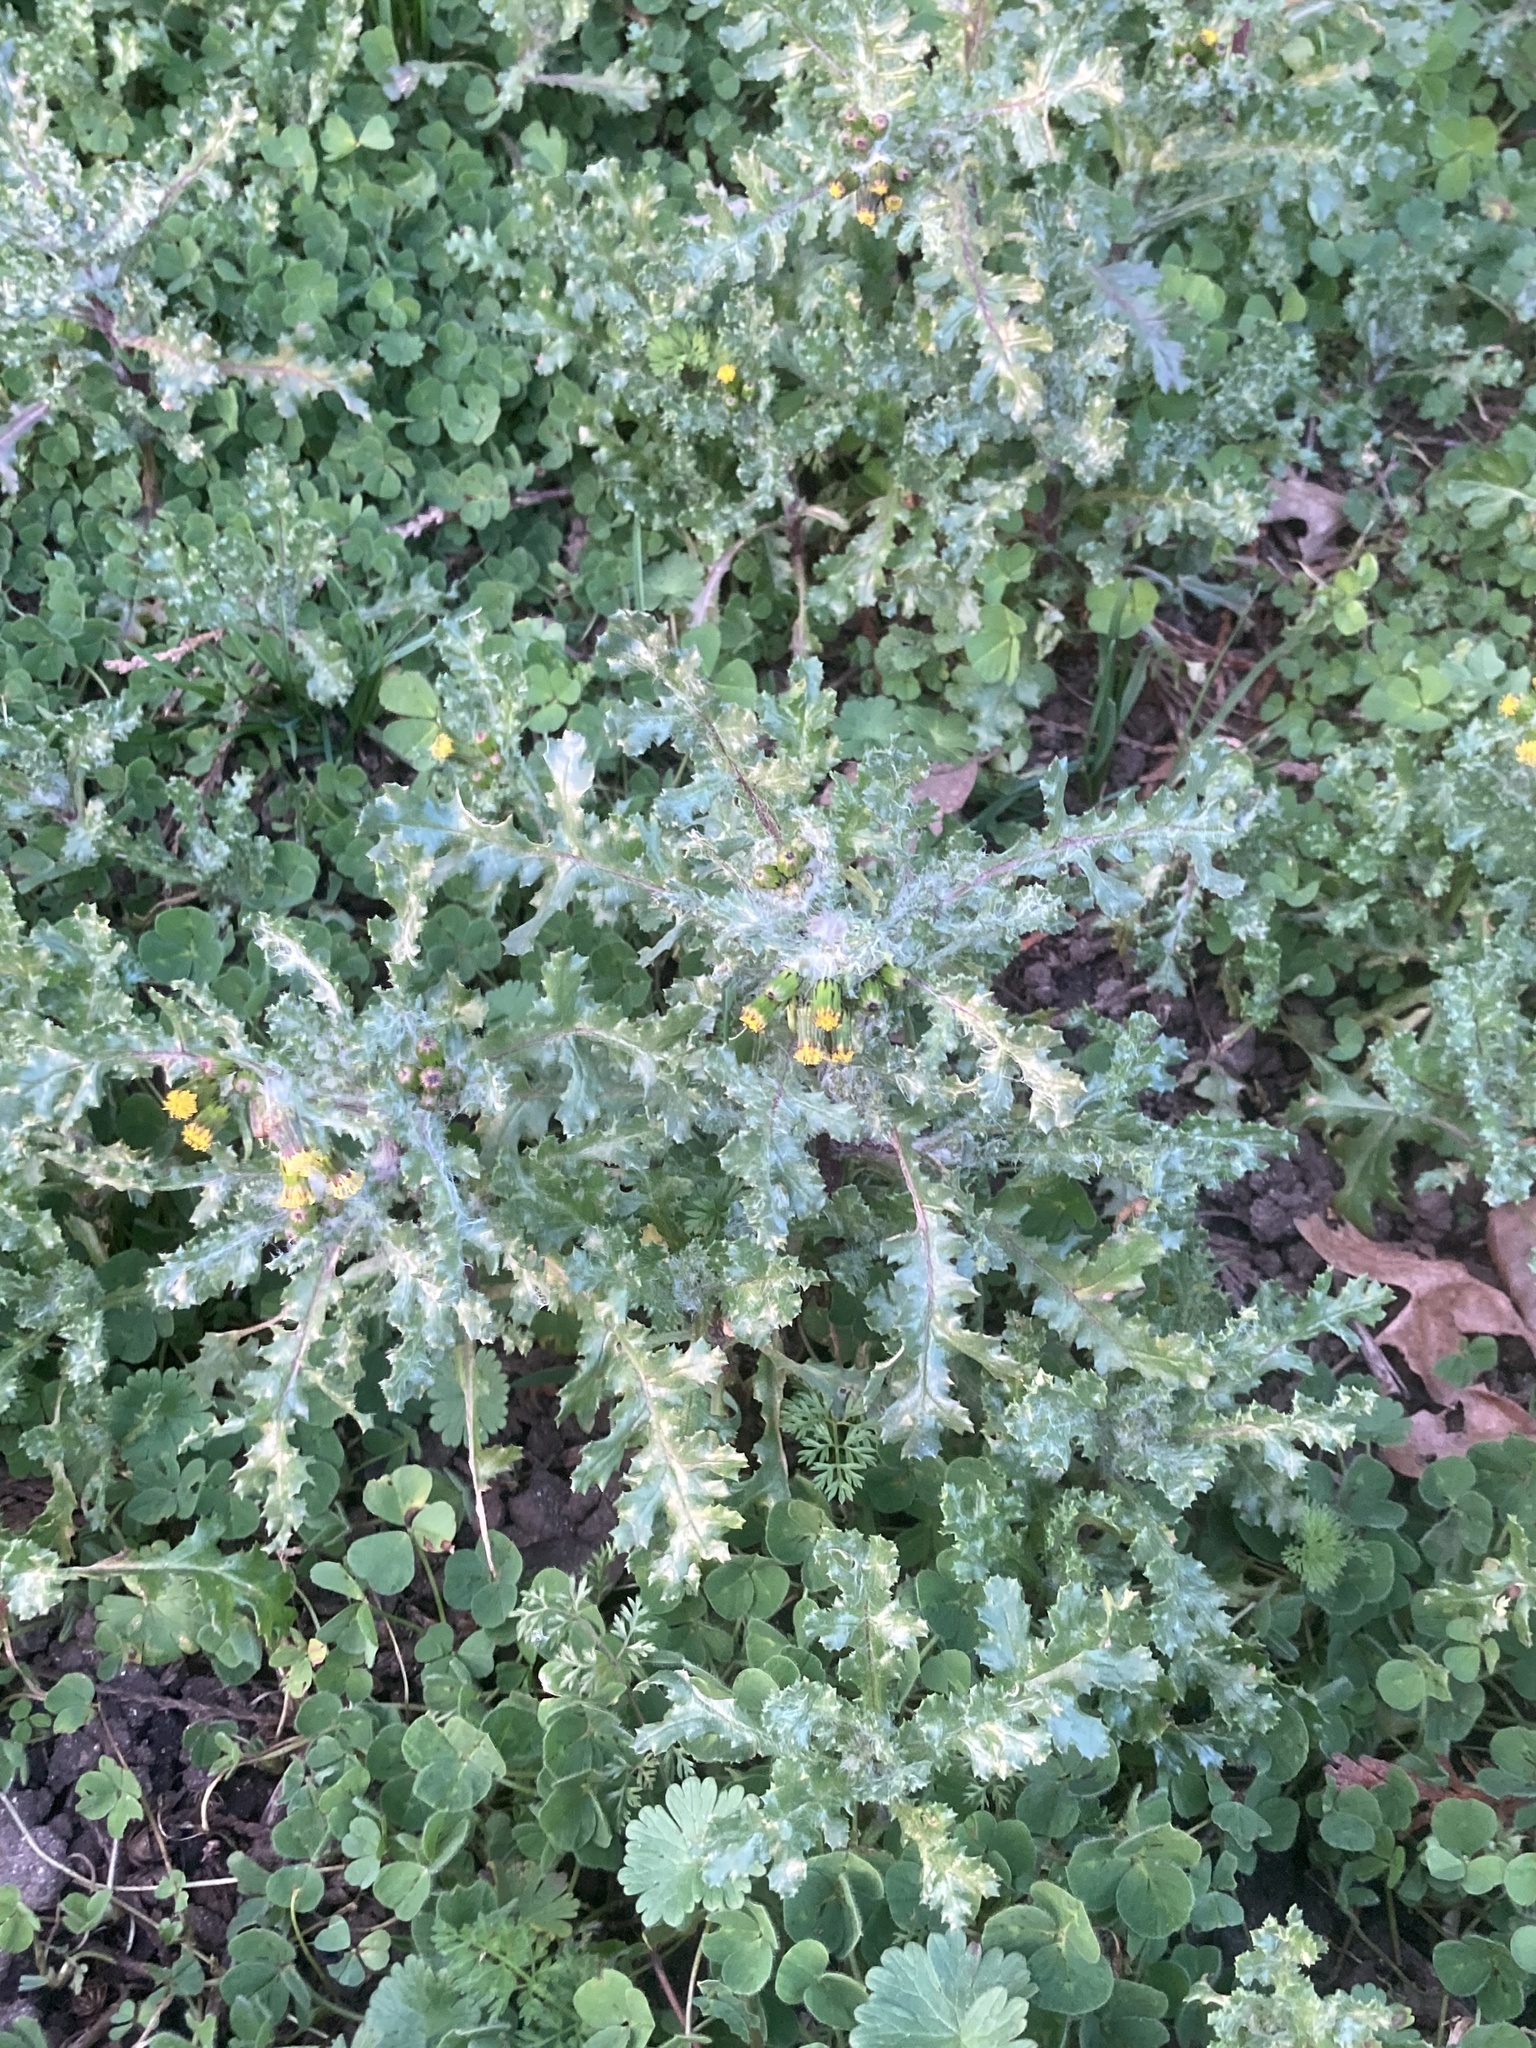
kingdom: Plantae
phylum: Tracheophyta
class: Magnoliopsida
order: Asterales
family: Asteraceae
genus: Senecio
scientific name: Senecio vulgaris
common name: Old-man-in-the-spring
